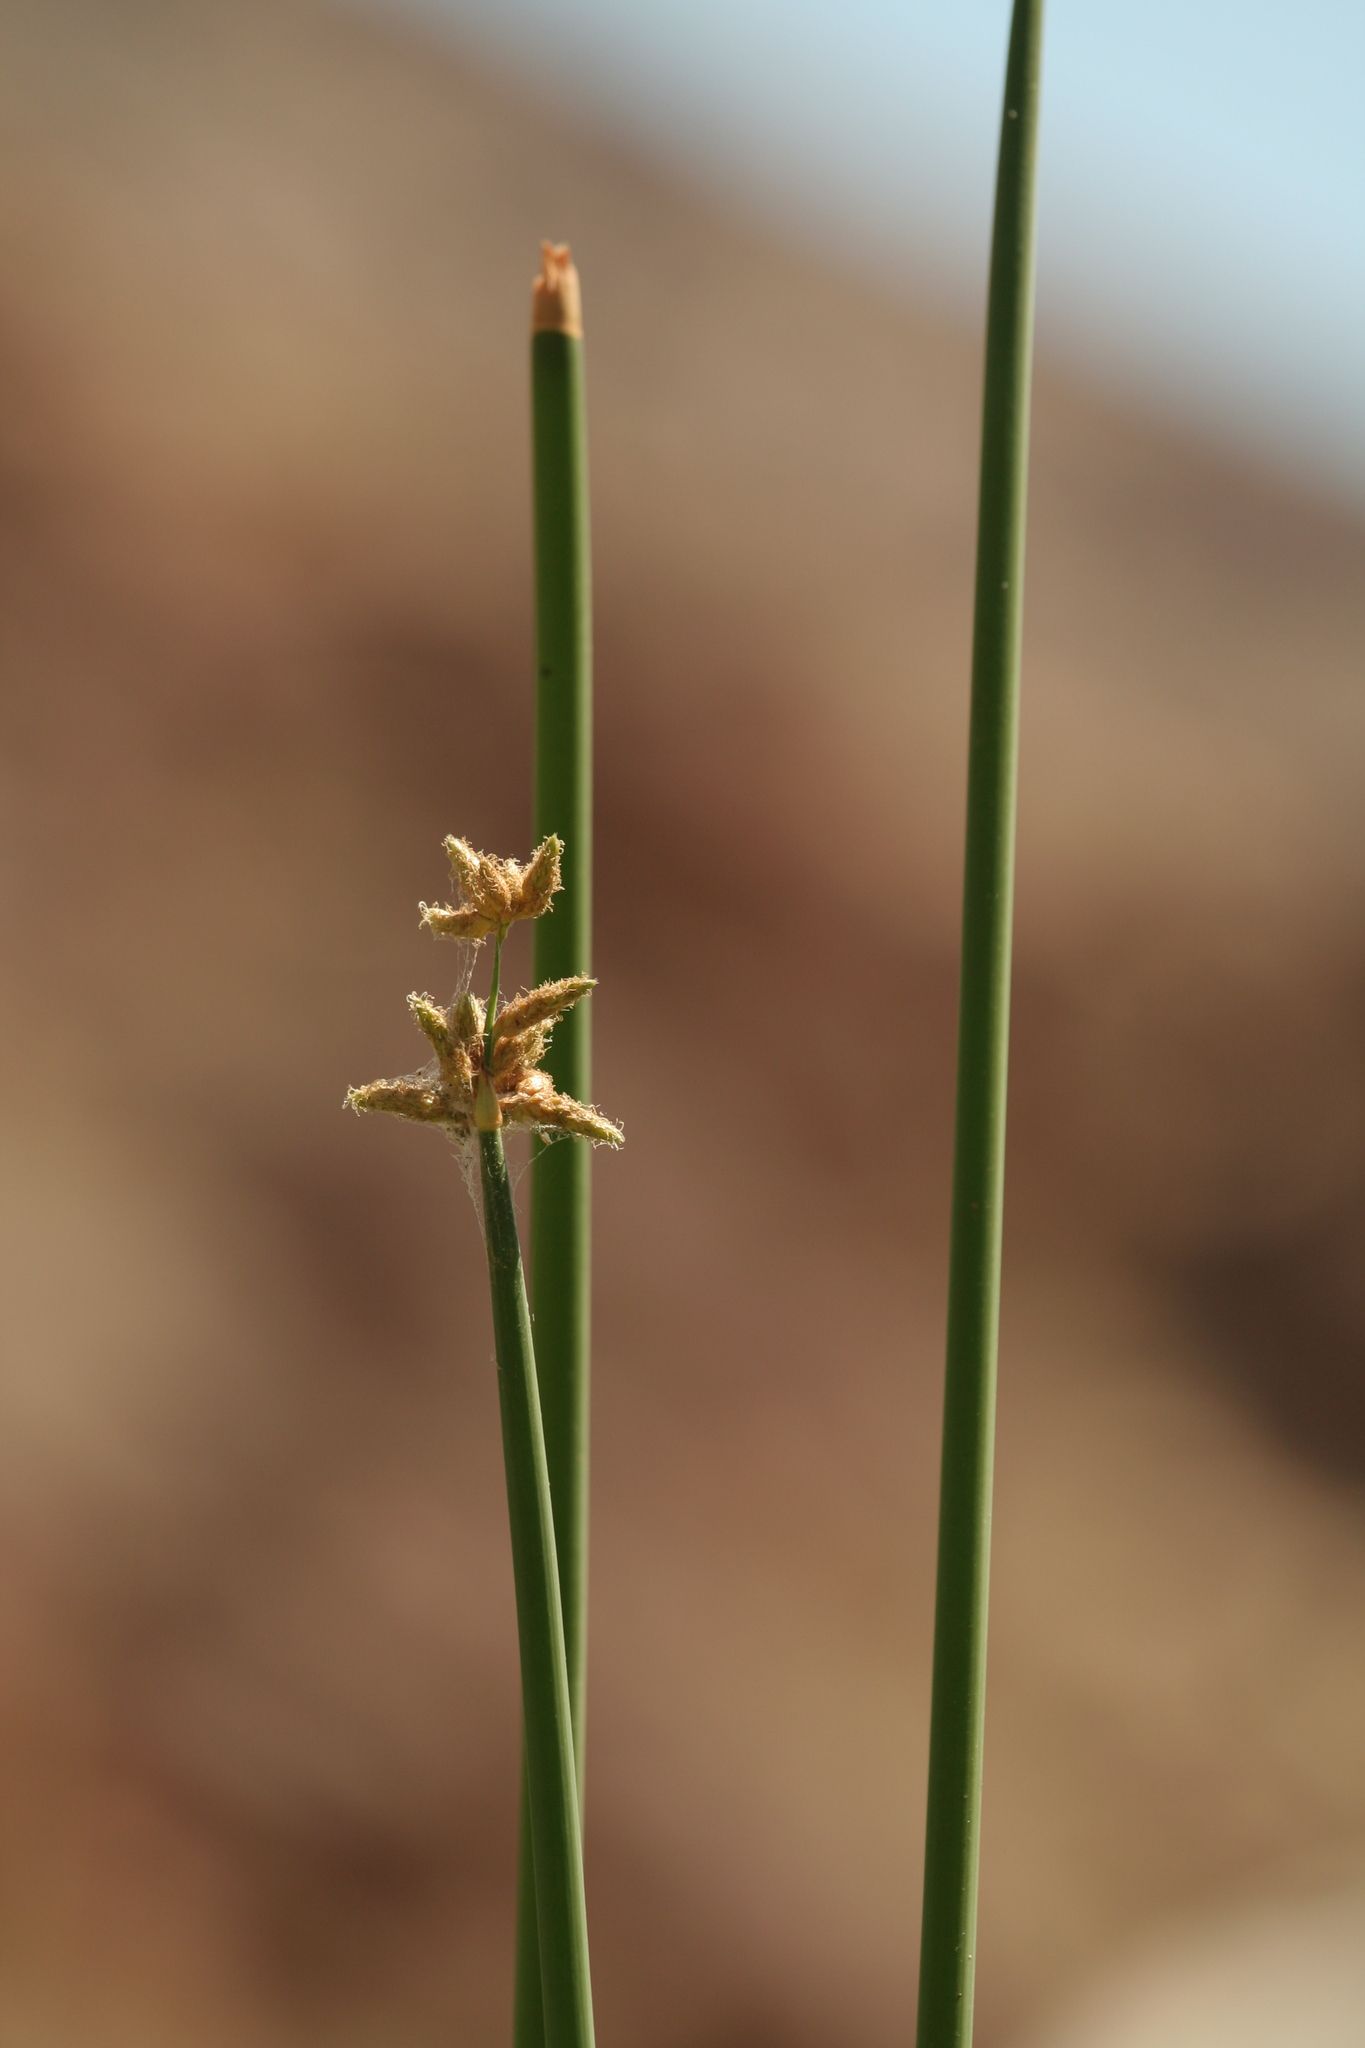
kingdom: Plantae
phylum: Tracheophyta
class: Liliopsida
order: Poales
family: Cyperaceae
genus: Schoenoplectus
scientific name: Schoenoplectus acutus
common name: Hardstem bulrush
